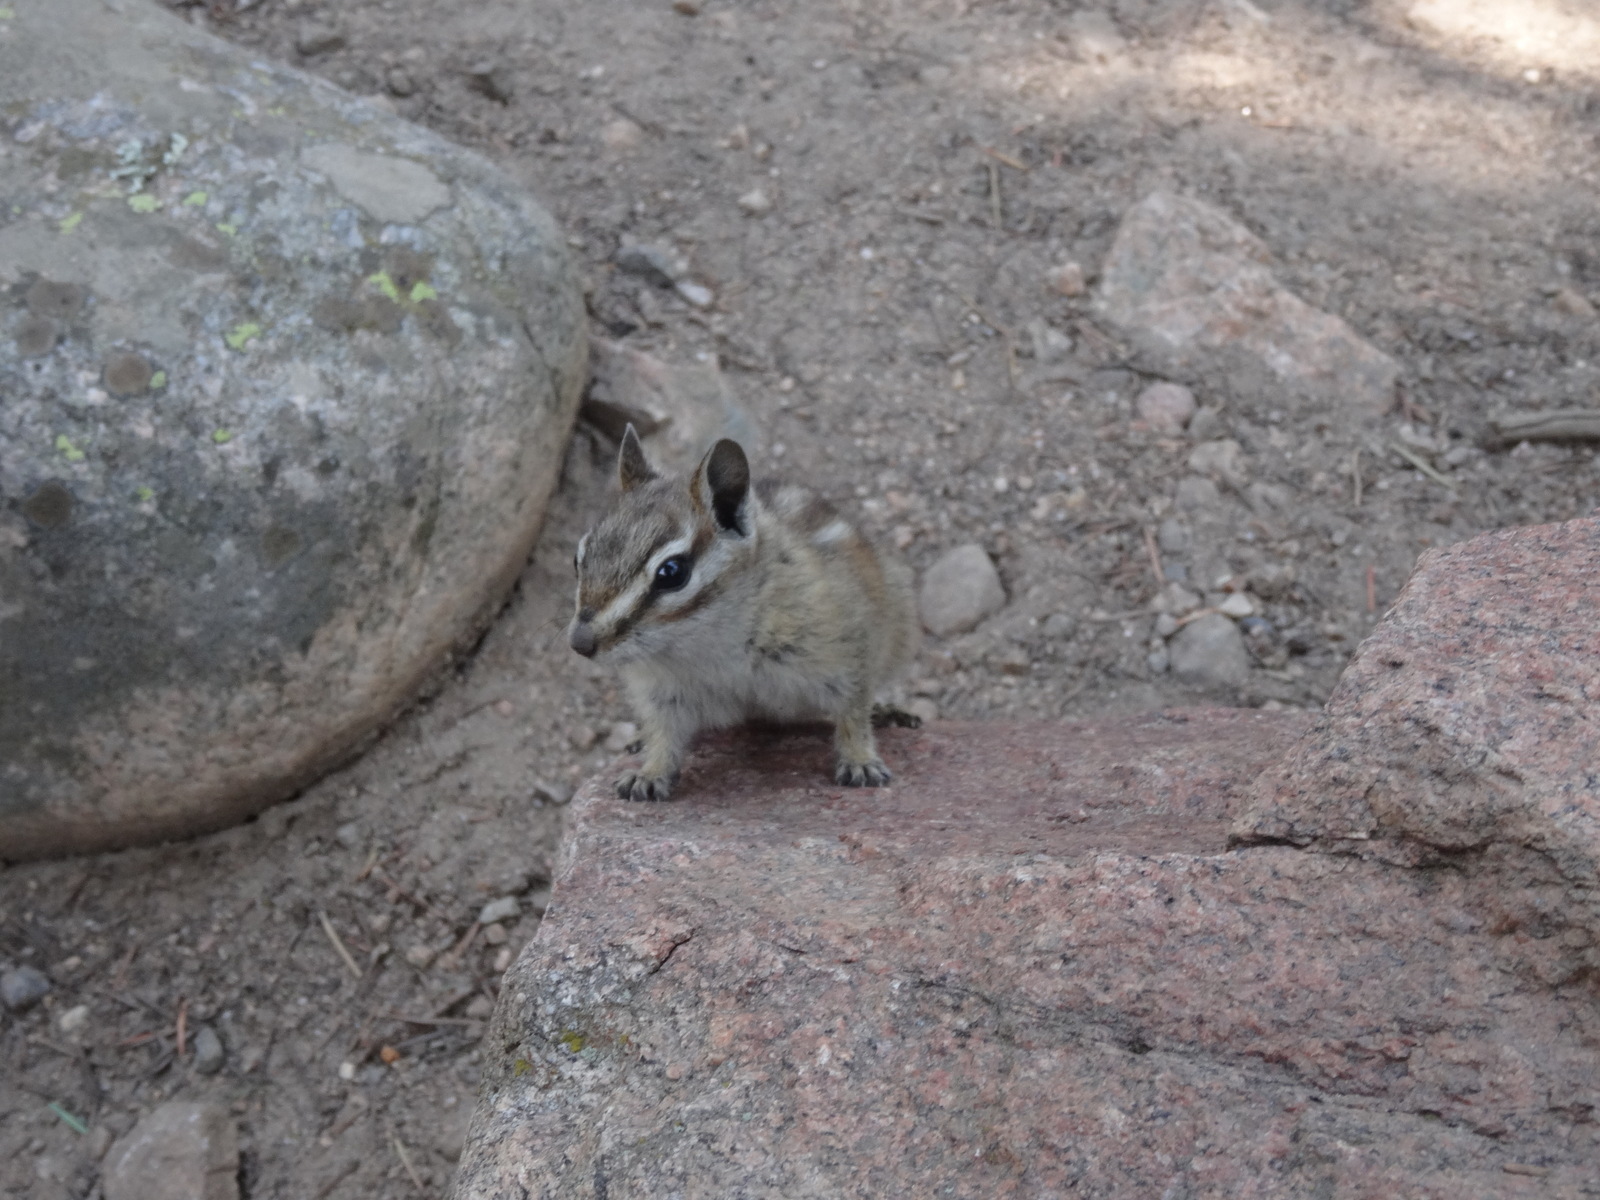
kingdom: Animalia
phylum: Chordata
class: Mammalia
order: Rodentia
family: Sciuridae
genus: Tamias
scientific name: Tamias minimus
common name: Least chipmunk
